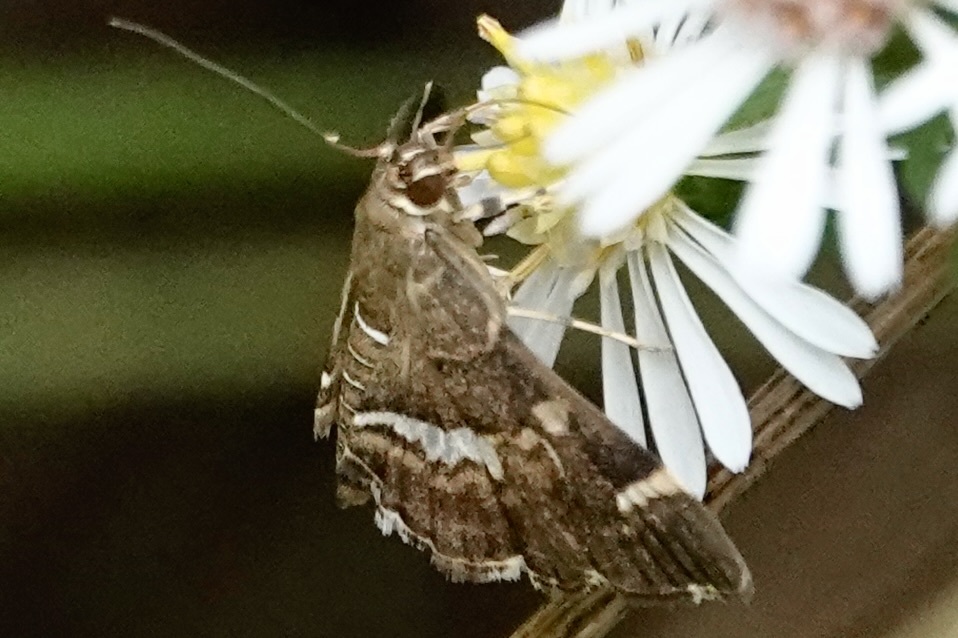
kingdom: Animalia
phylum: Arthropoda
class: Insecta
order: Lepidoptera
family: Crambidae
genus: Hymenia
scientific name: Hymenia perspectalis
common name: Spotted beet webworm
